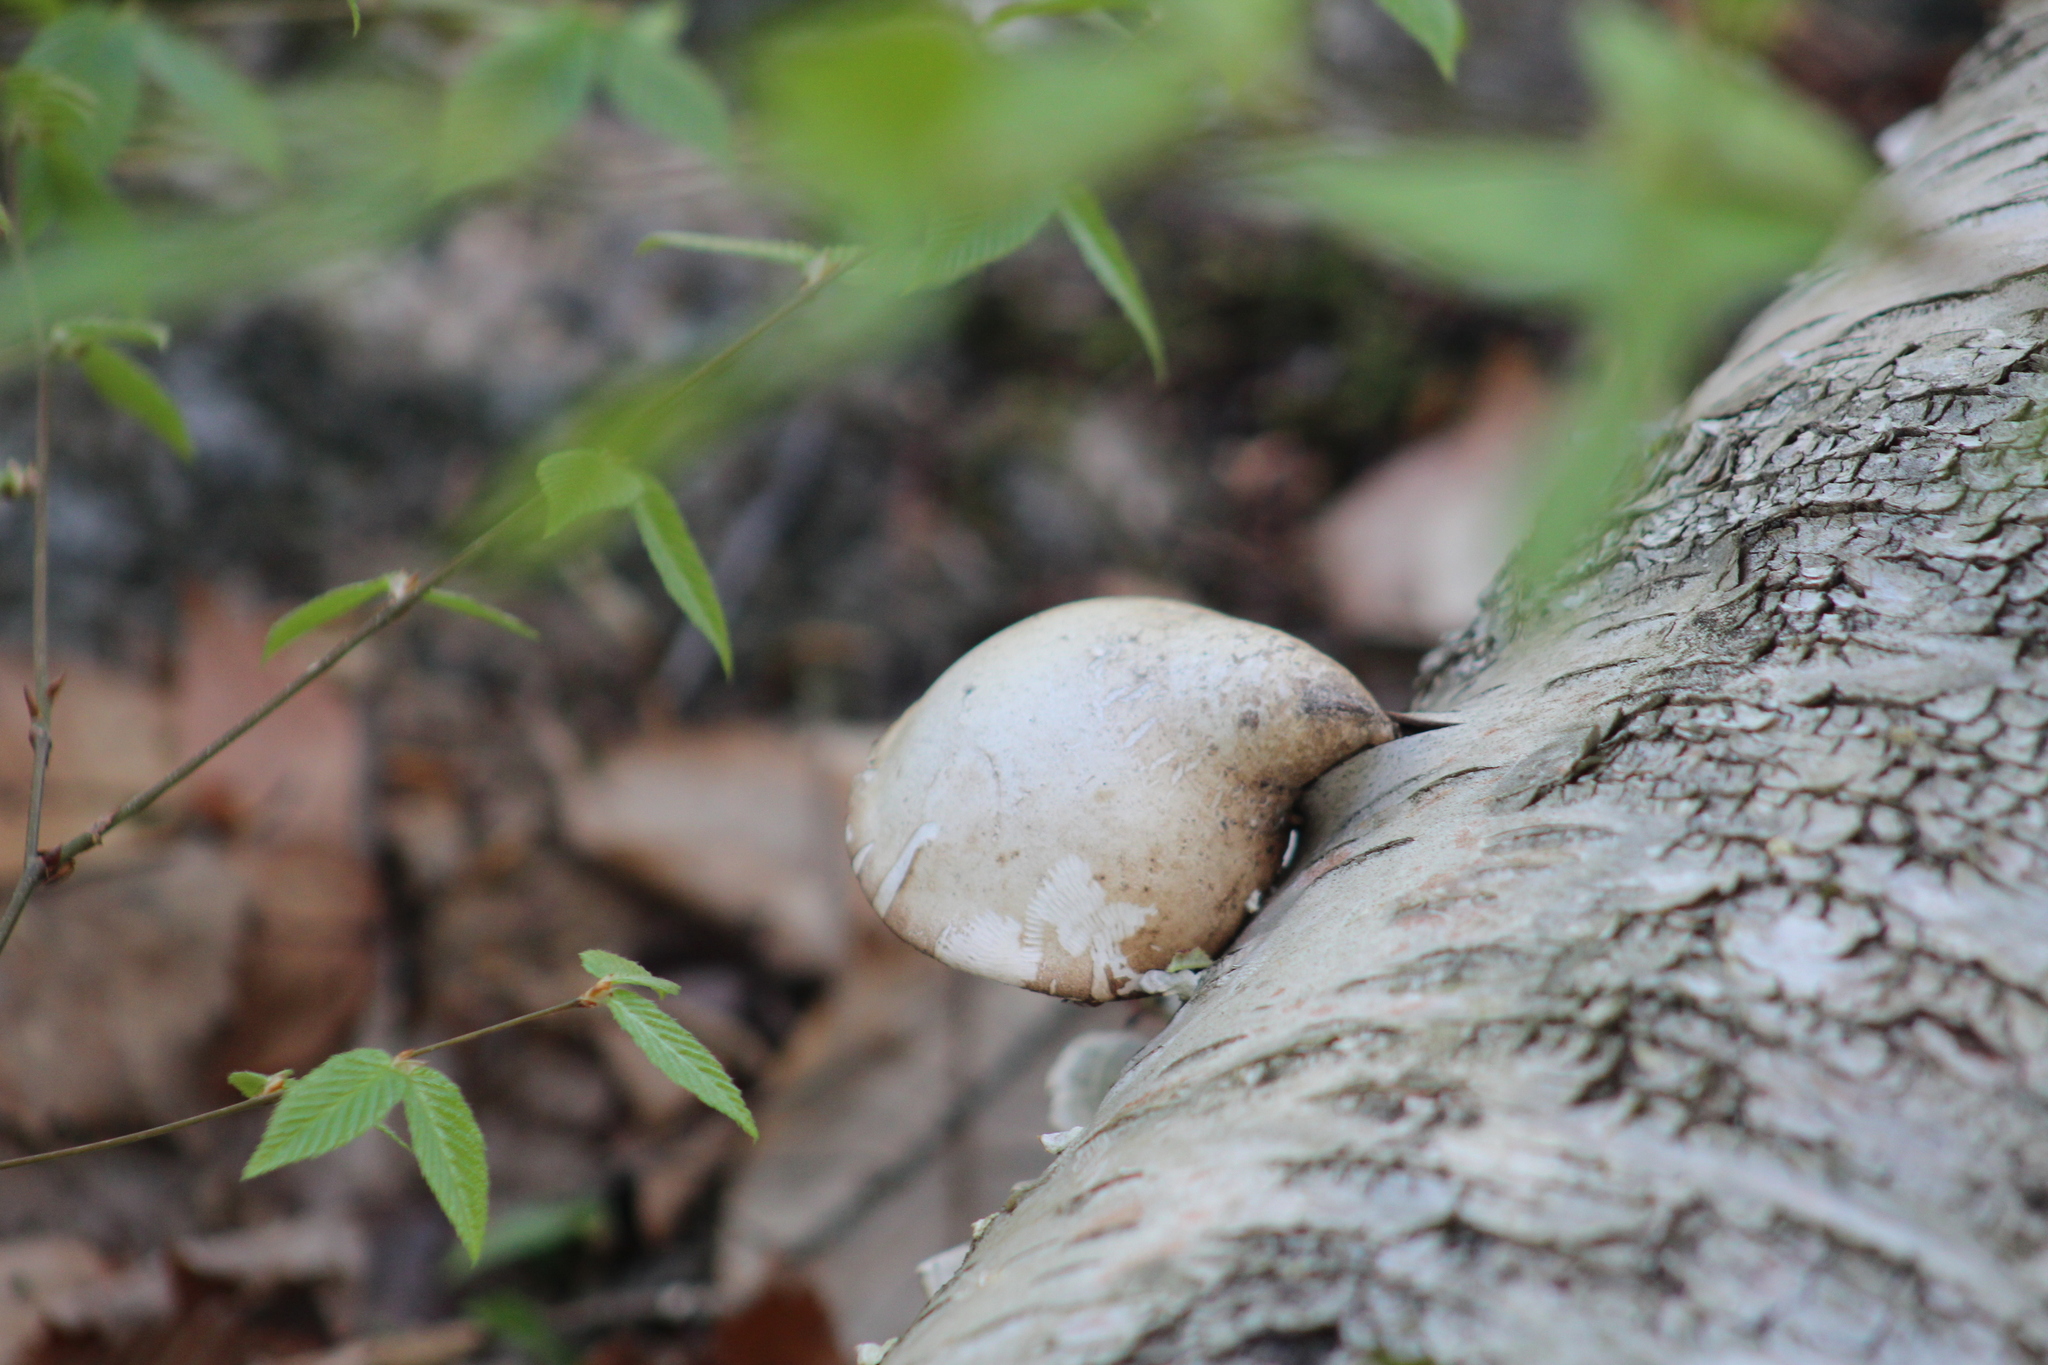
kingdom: Fungi
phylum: Basidiomycota
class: Agaricomycetes
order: Polyporales
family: Fomitopsidaceae
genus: Fomitopsis
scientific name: Fomitopsis betulina
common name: Birch polypore
